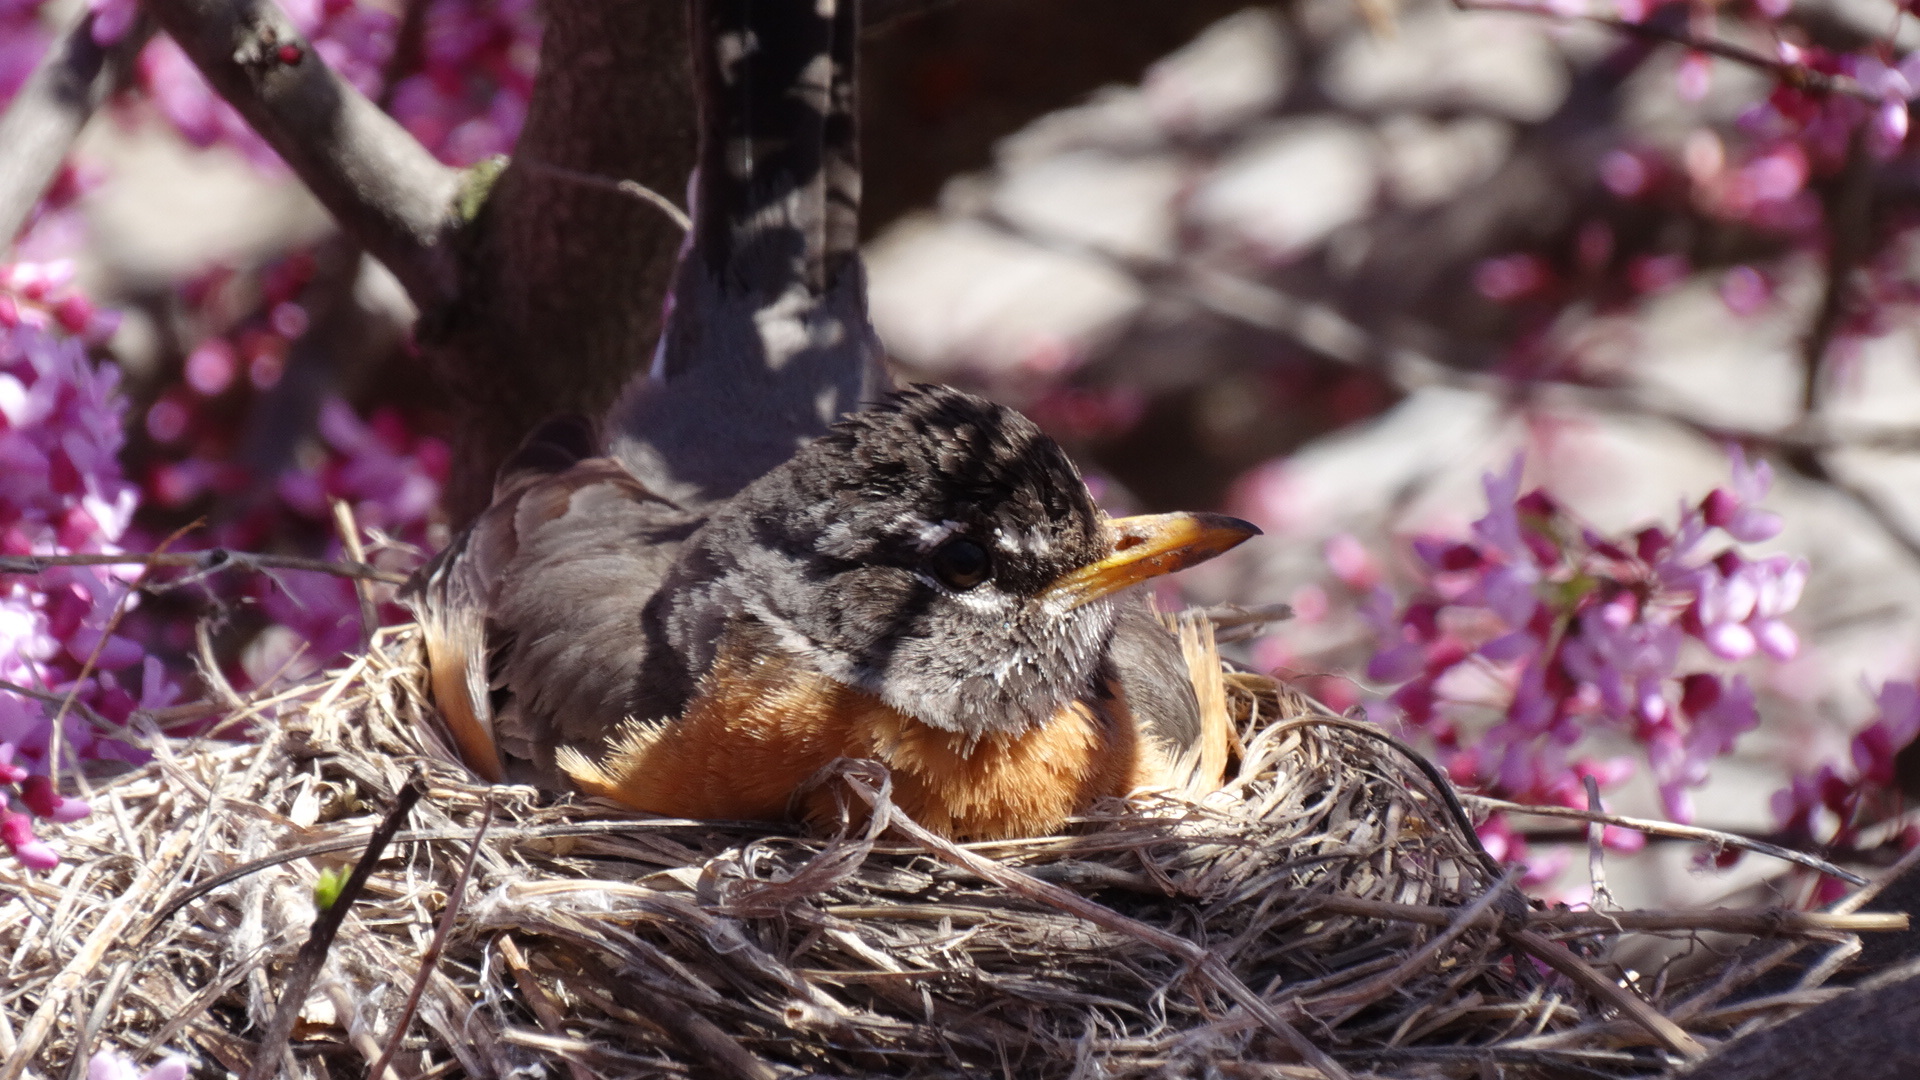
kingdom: Animalia
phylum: Chordata
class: Aves
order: Passeriformes
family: Turdidae
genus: Turdus
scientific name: Turdus migratorius
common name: American robin
